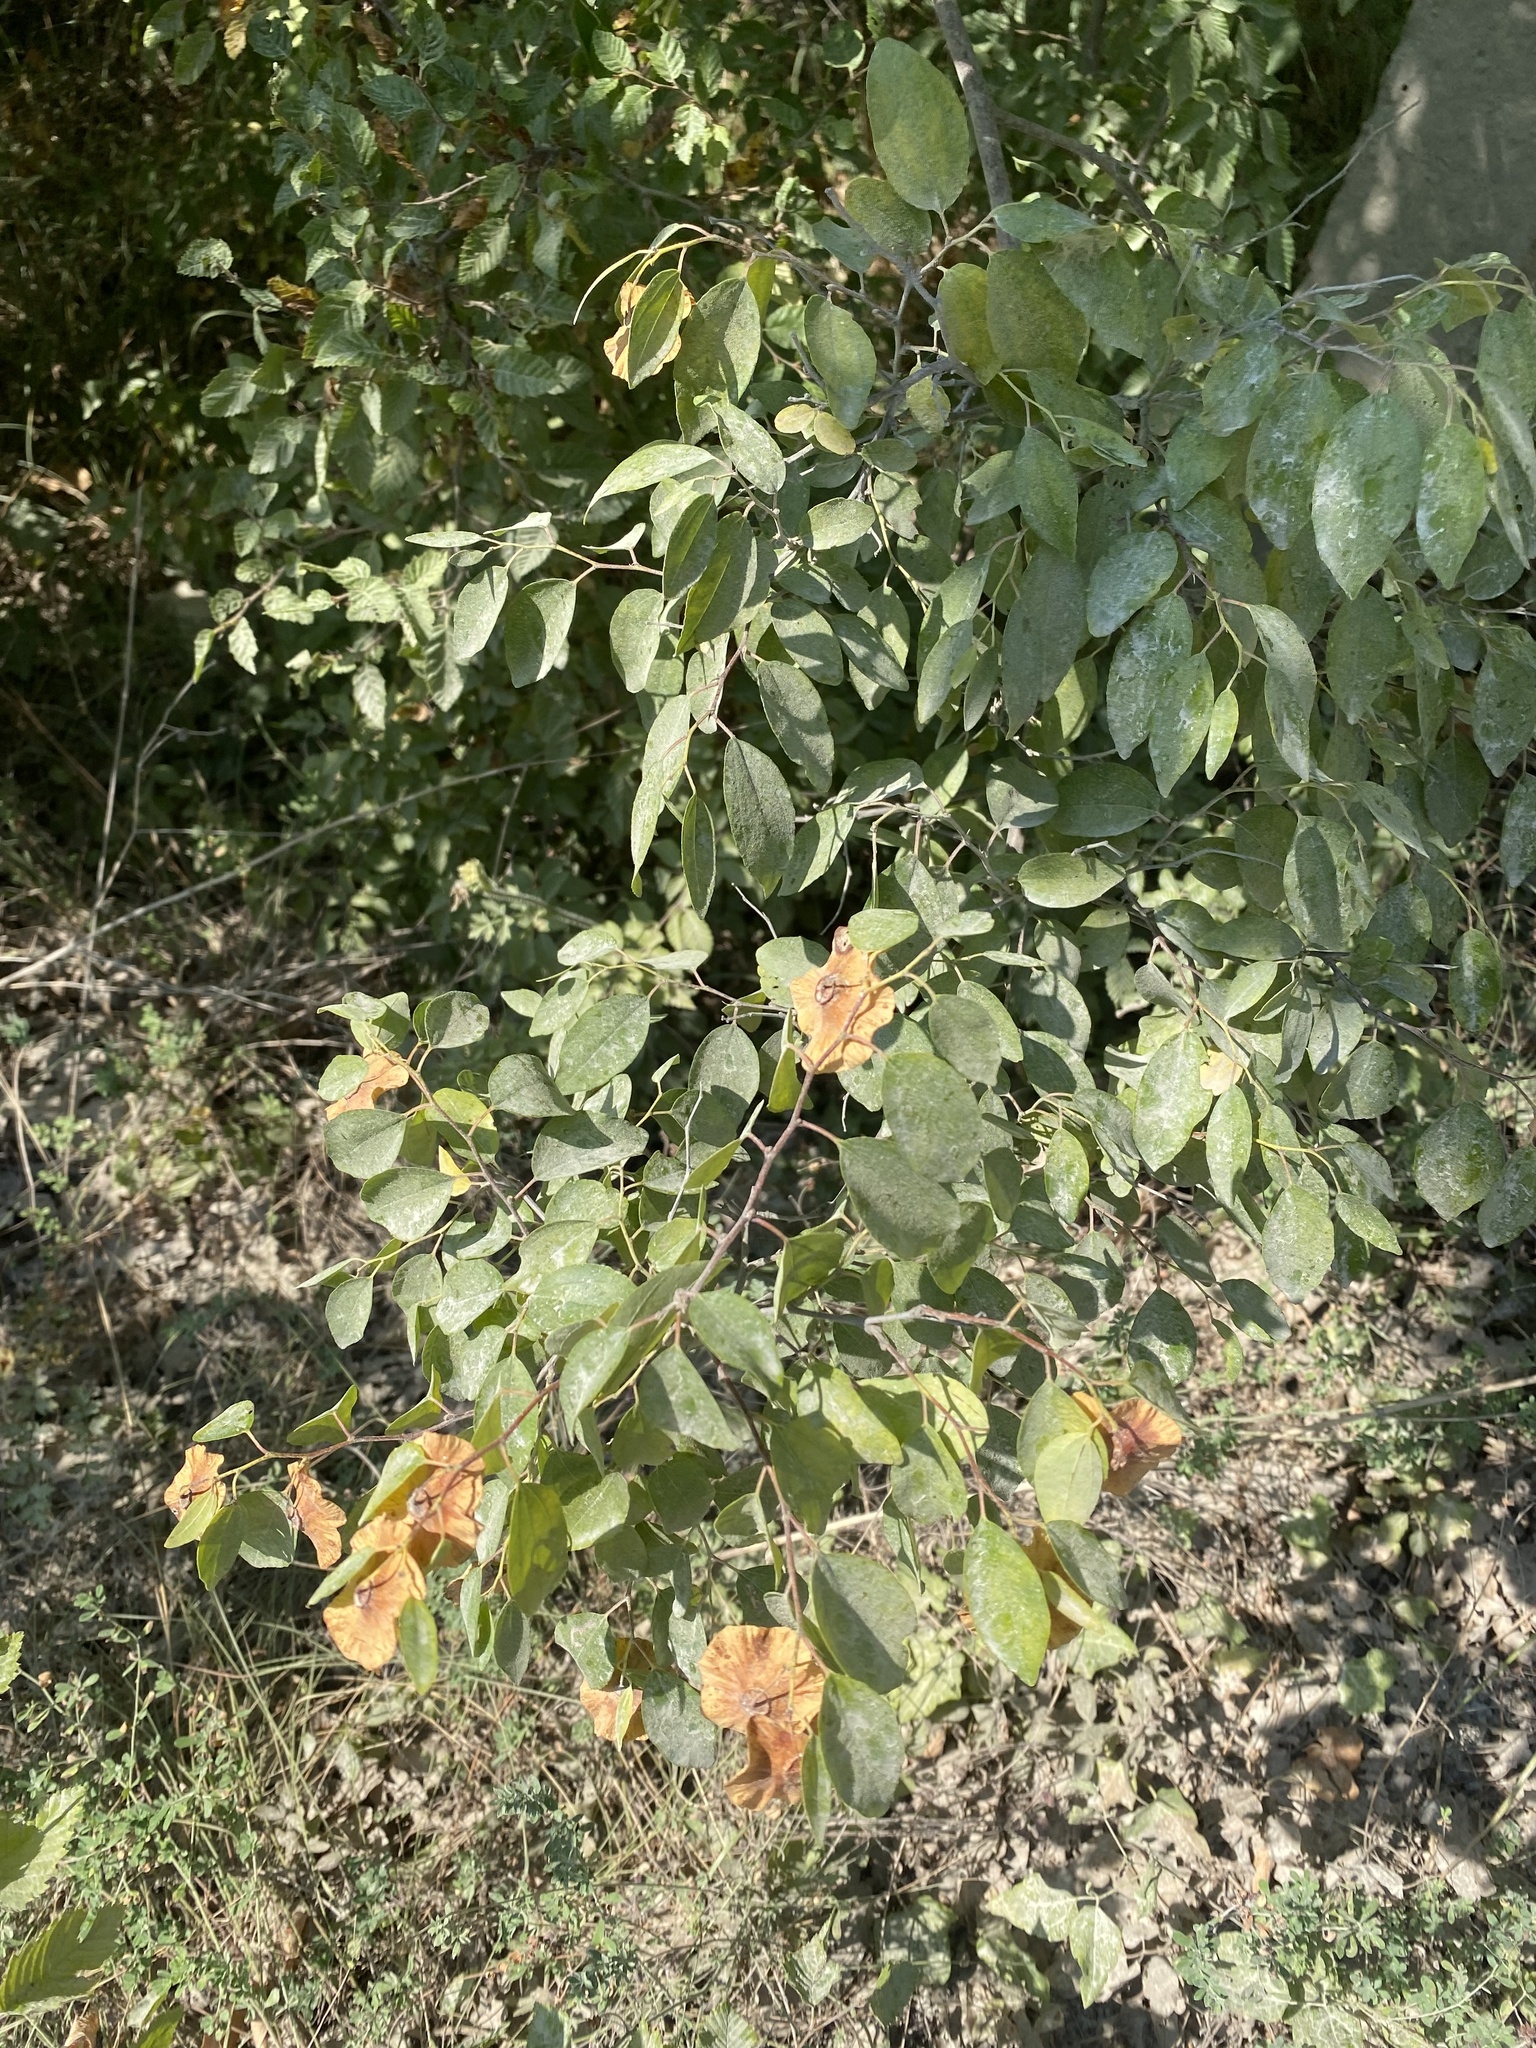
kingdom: Plantae
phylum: Tracheophyta
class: Magnoliopsida
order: Rosales
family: Rhamnaceae
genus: Paliurus
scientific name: Paliurus spina-christi
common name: Jeruselem thorn
